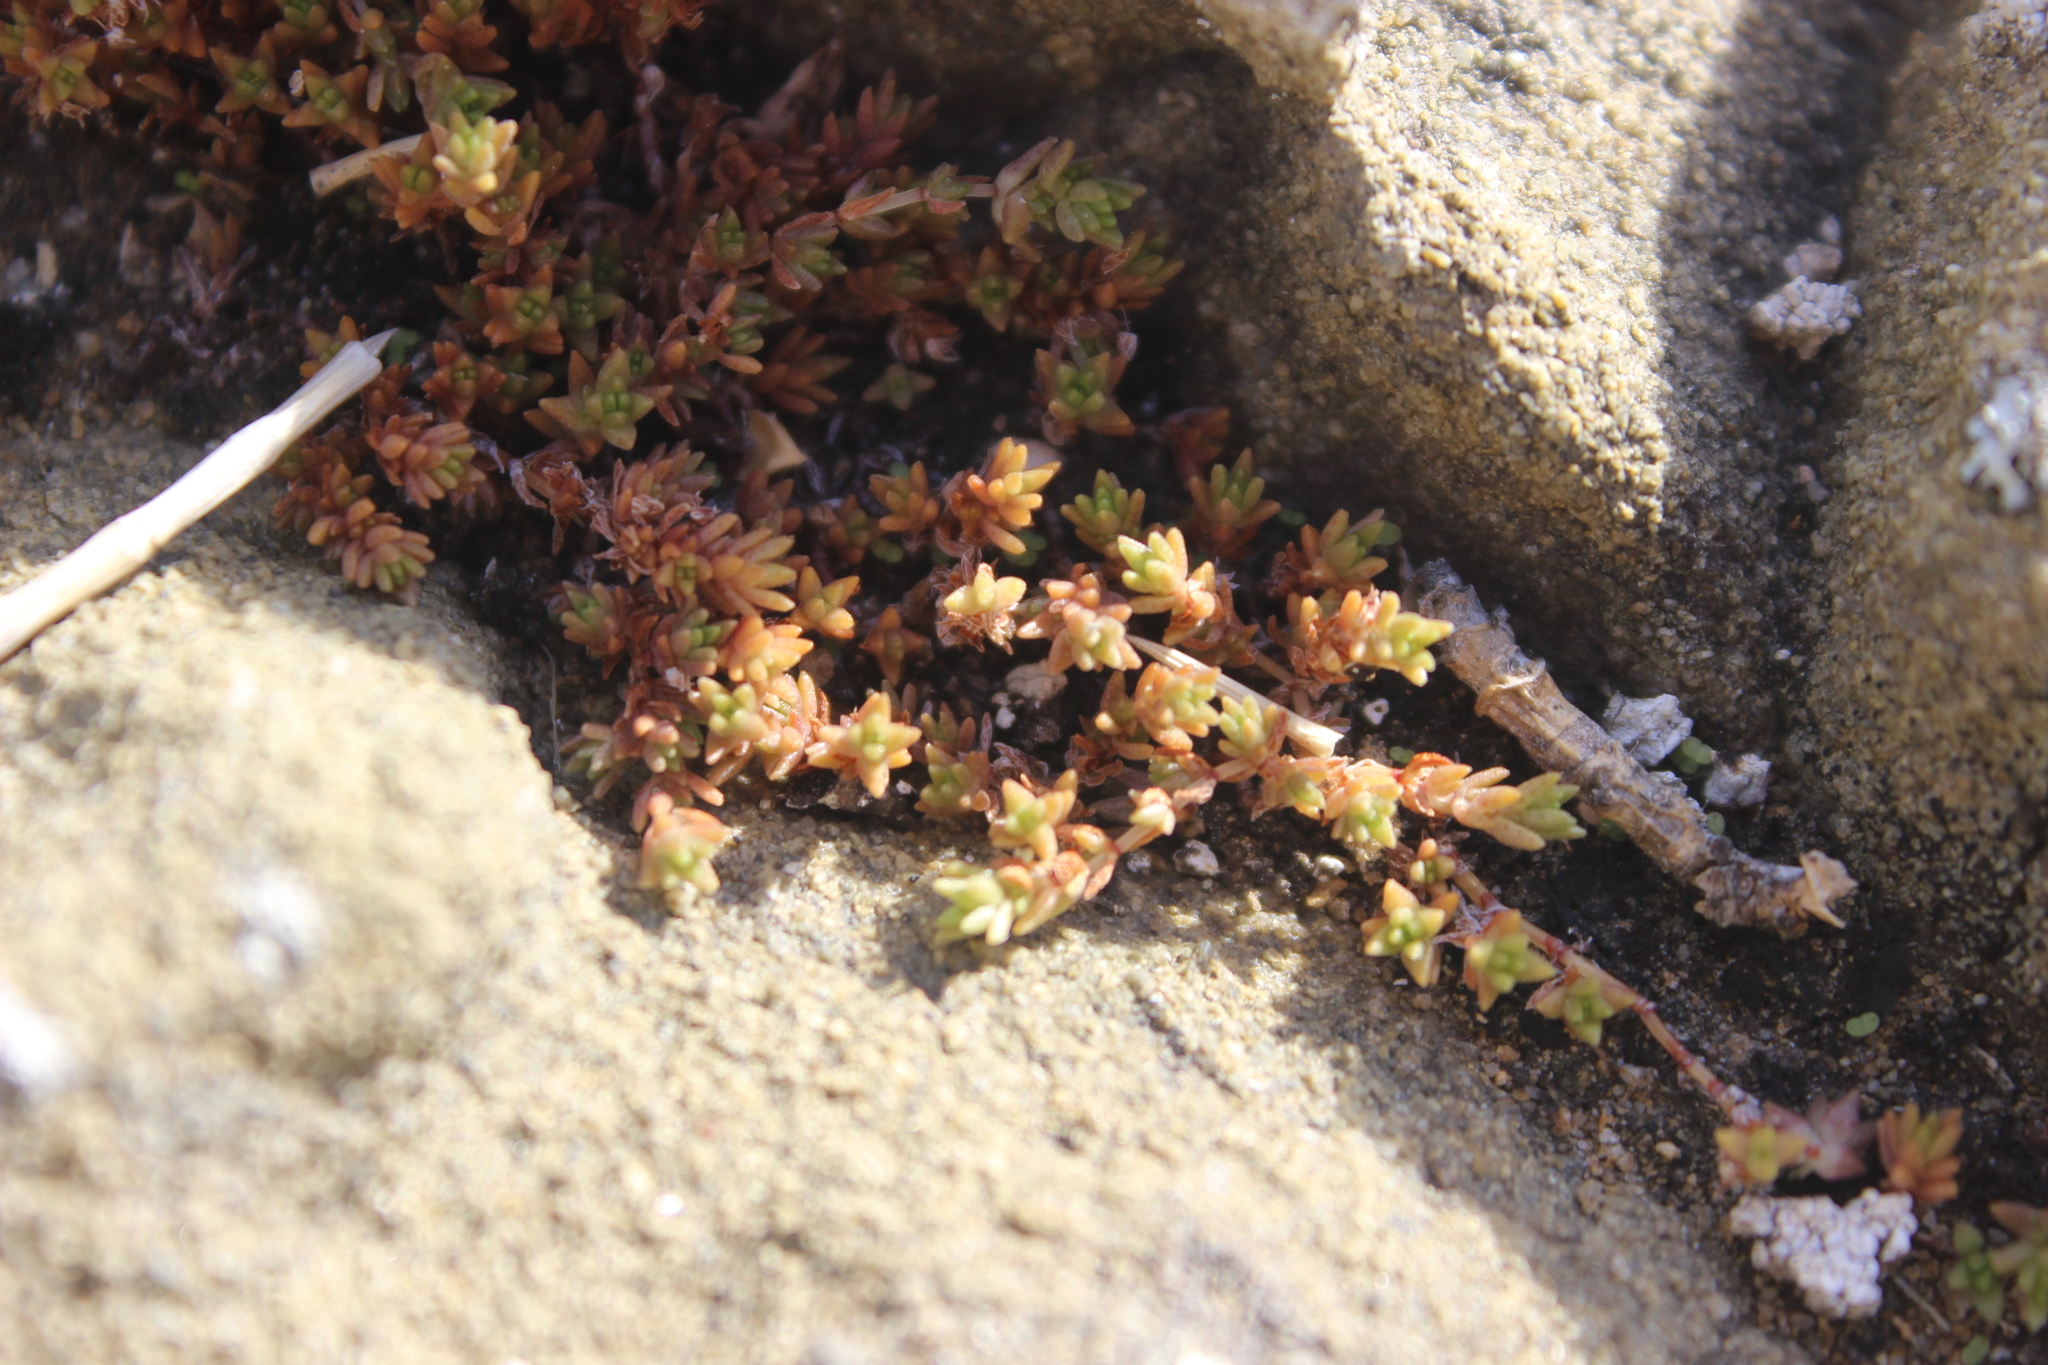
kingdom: Plantae
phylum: Tracheophyta
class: Magnoliopsida
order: Saxifragales
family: Crassulaceae
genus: Crassula
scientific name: Crassula moschata
